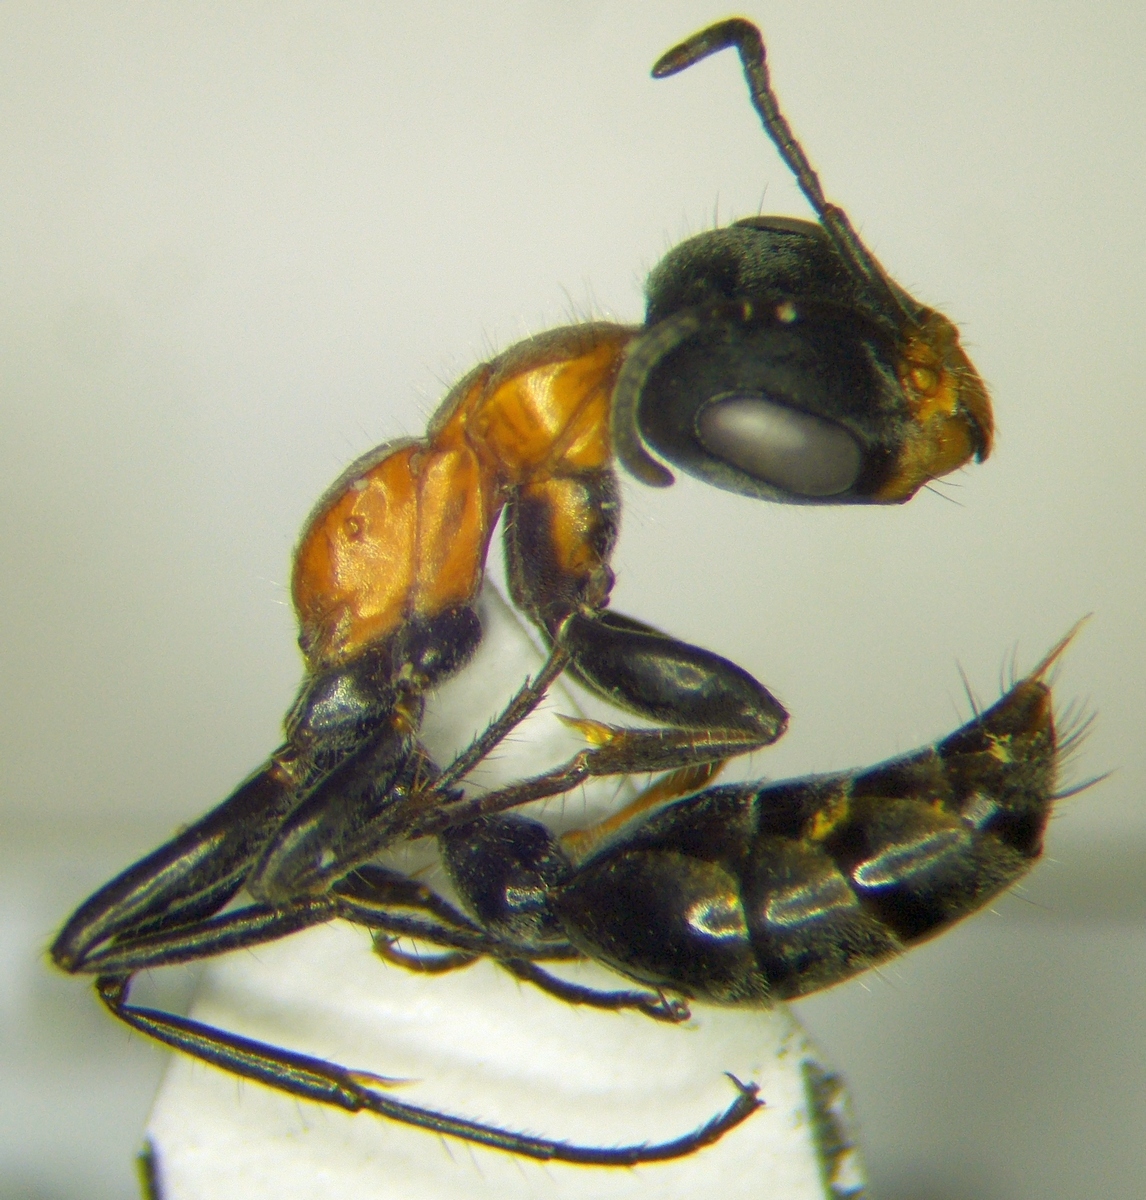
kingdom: Animalia
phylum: Arthropoda
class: Insecta
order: Hymenoptera
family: Formicidae
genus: Pseudomyrmex
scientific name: Pseudomyrmex gracilis
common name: Graceful twig ant
